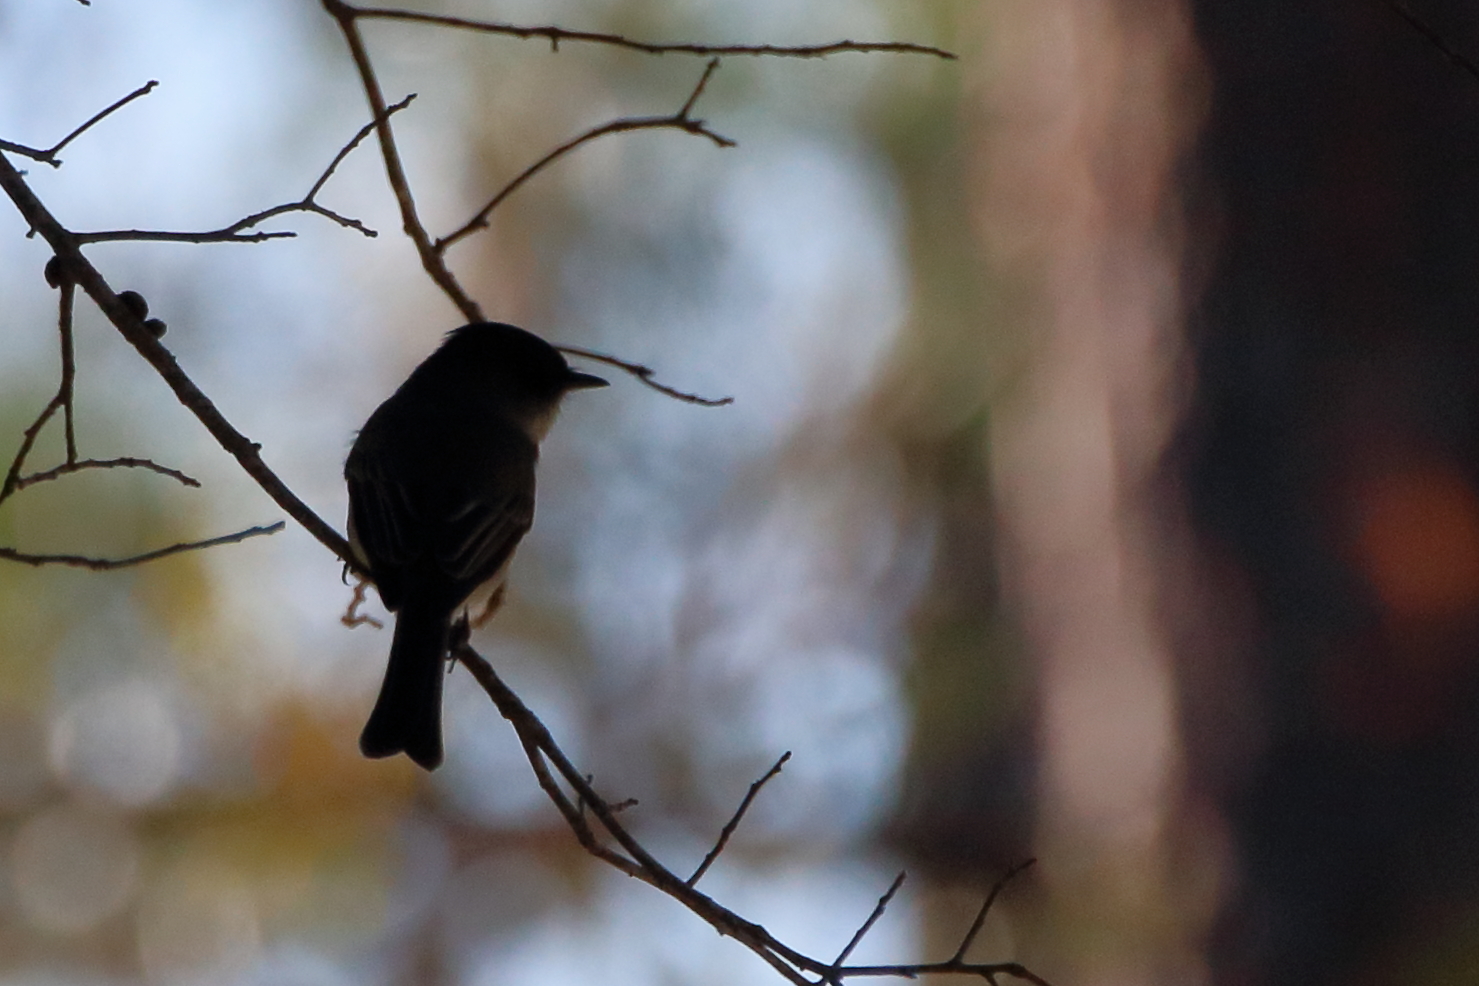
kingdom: Animalia
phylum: Chordata
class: Aves
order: Passeriformes
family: Tyrannidae
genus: Sayornis
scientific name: Sayornis phoebe
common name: Eastern phoebe
